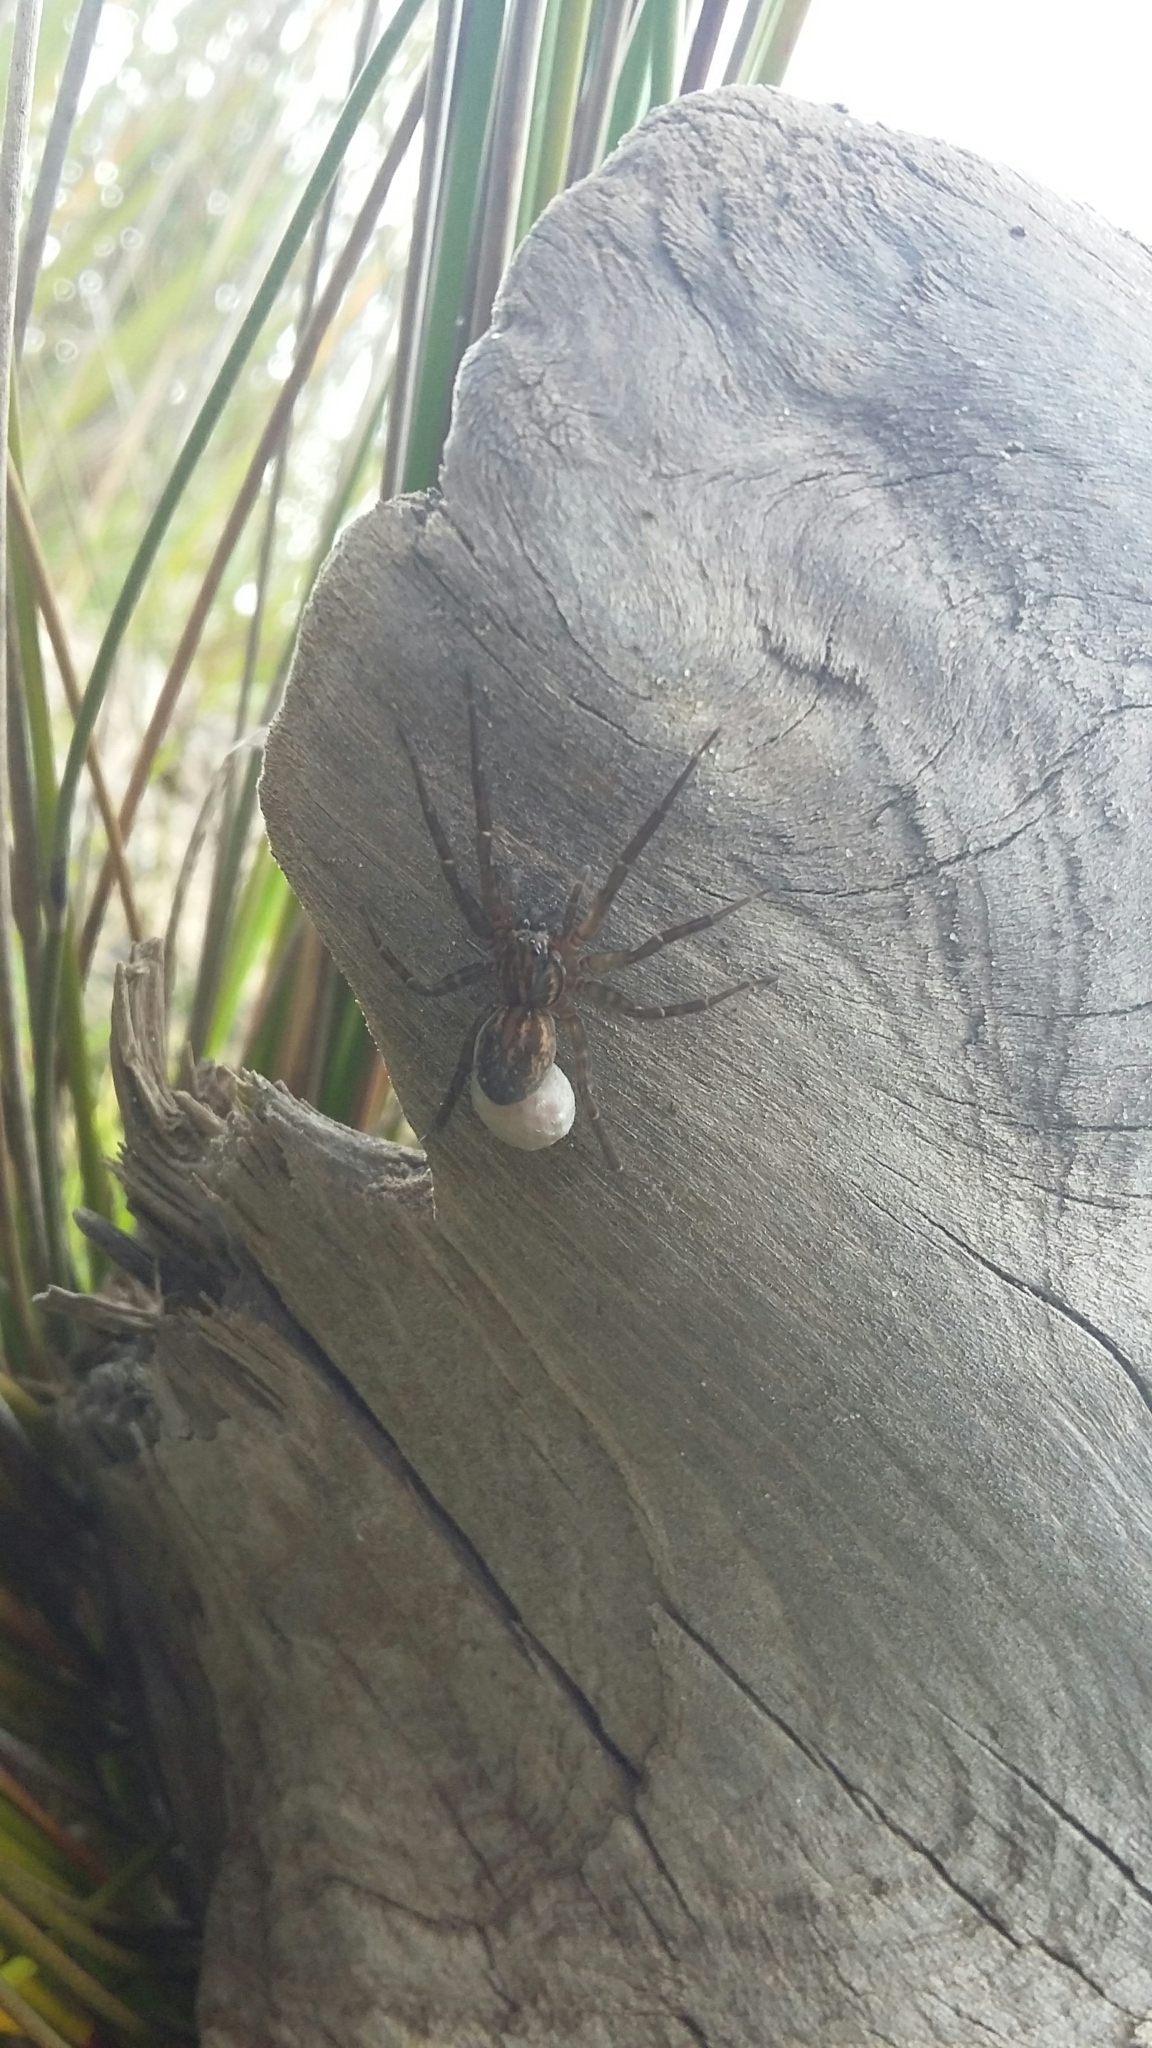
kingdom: Animalia
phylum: Arthropoda
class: Arachnida
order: Araneae
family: Lycosidae
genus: Allotrochosina
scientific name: Allotrochosina schauinslandi
